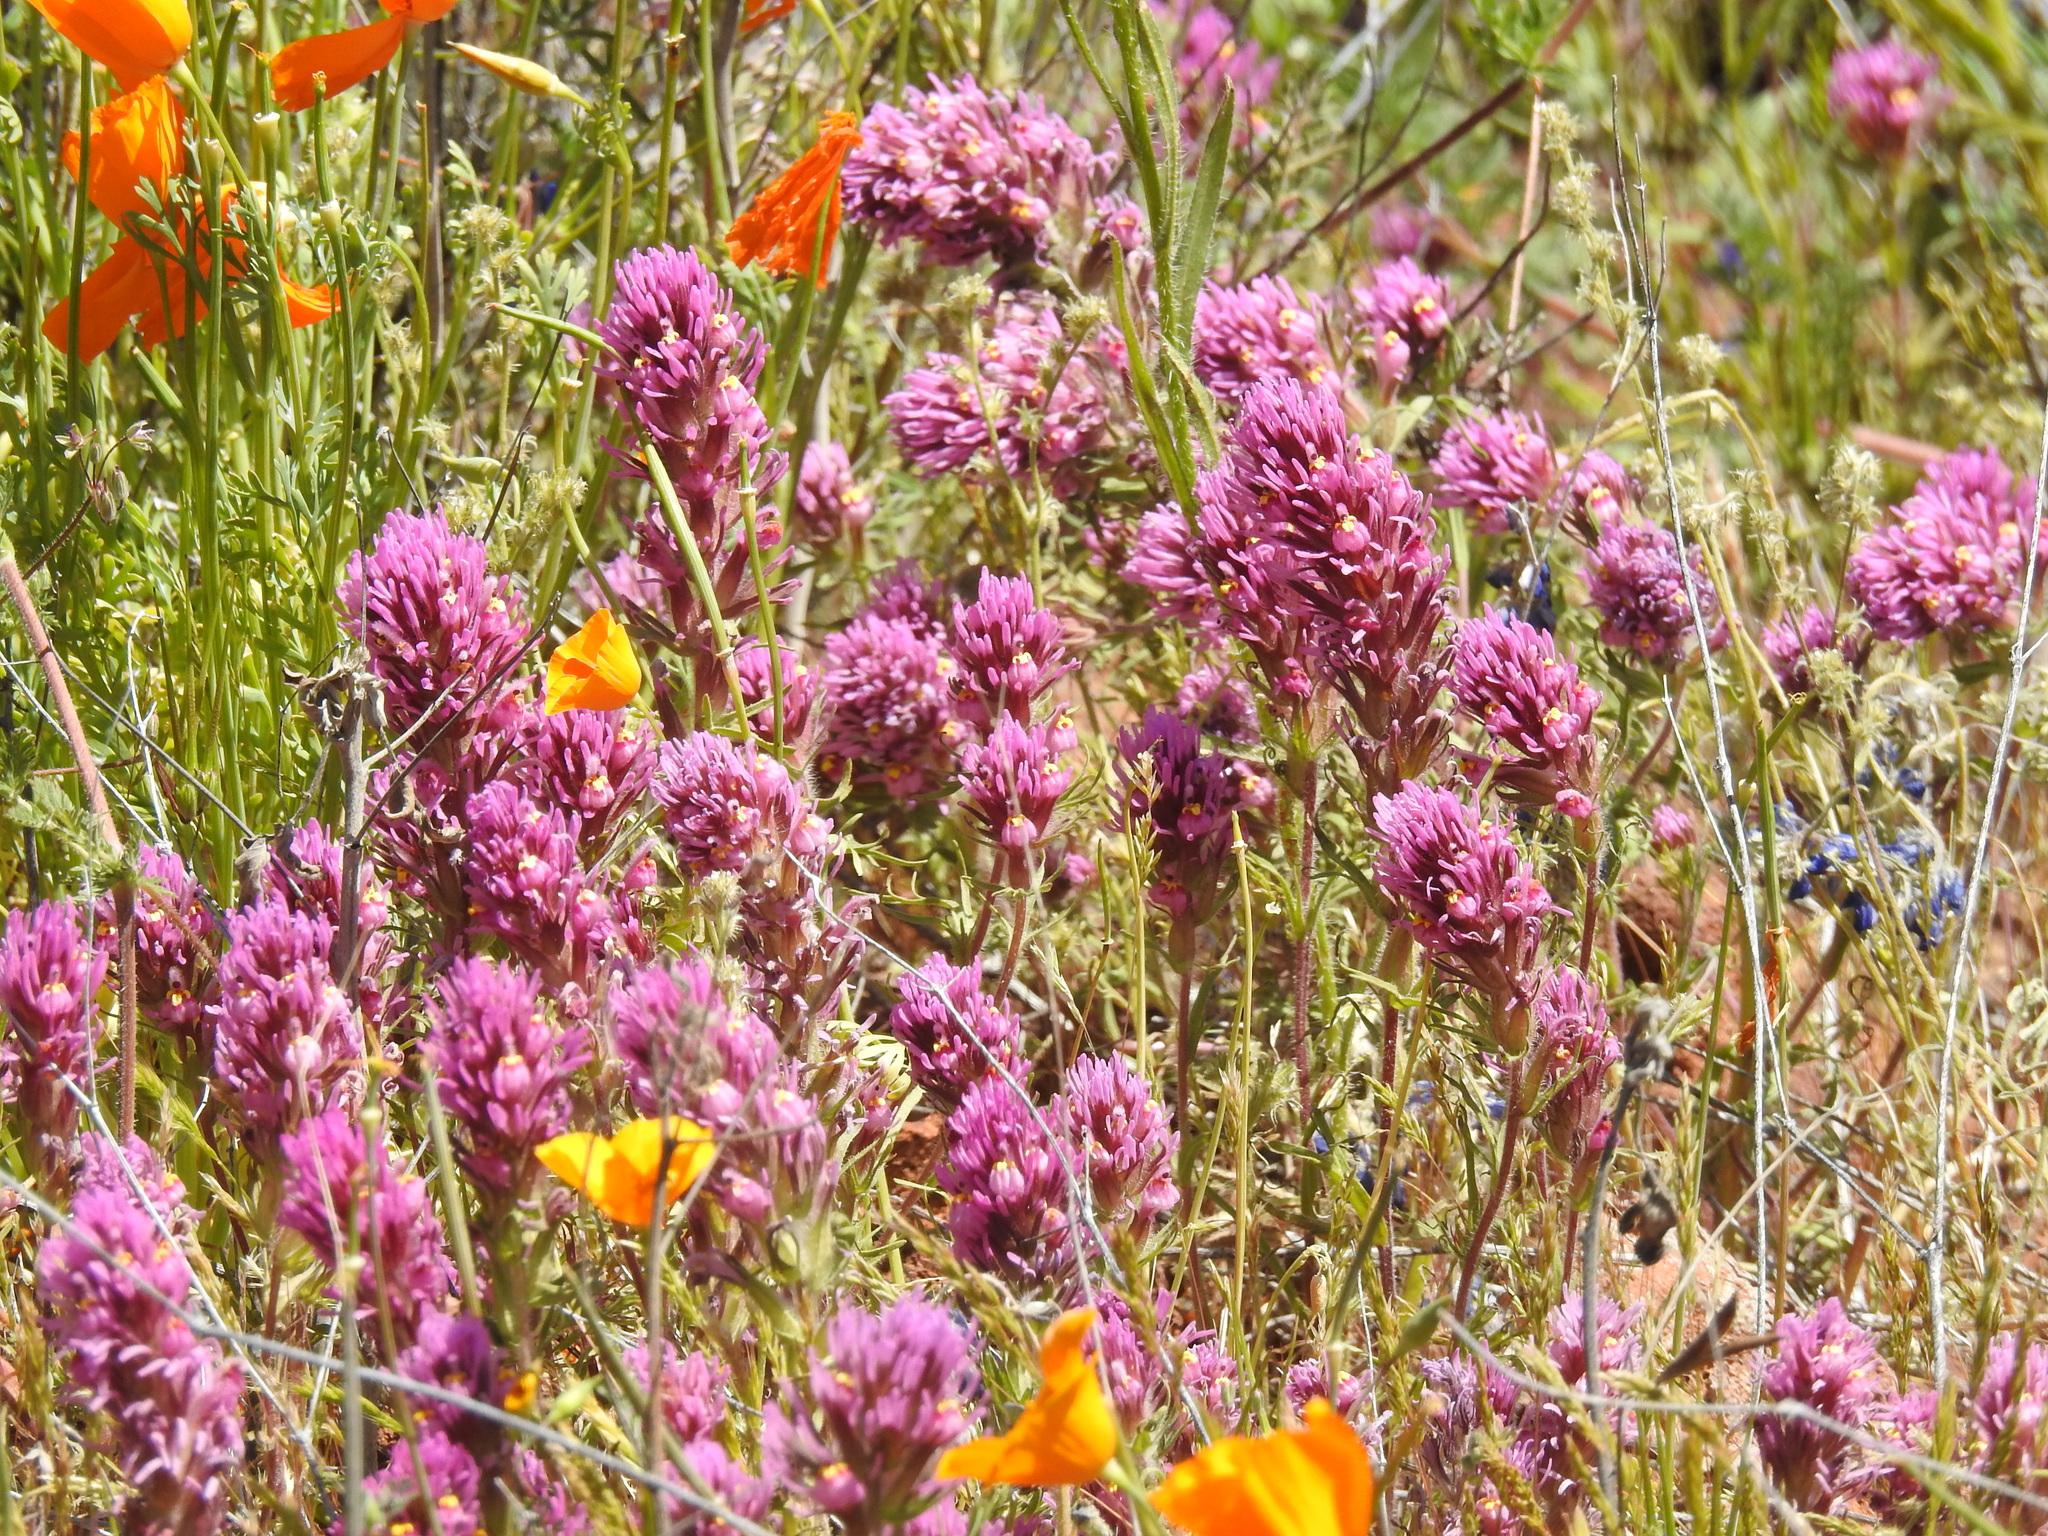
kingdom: Plantae
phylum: Tracheophyta
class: Magnoliopsida
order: Lamiales
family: Orobanchaceae
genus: Castilleja
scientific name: Castilleja exserta
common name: Purple owl-clover
